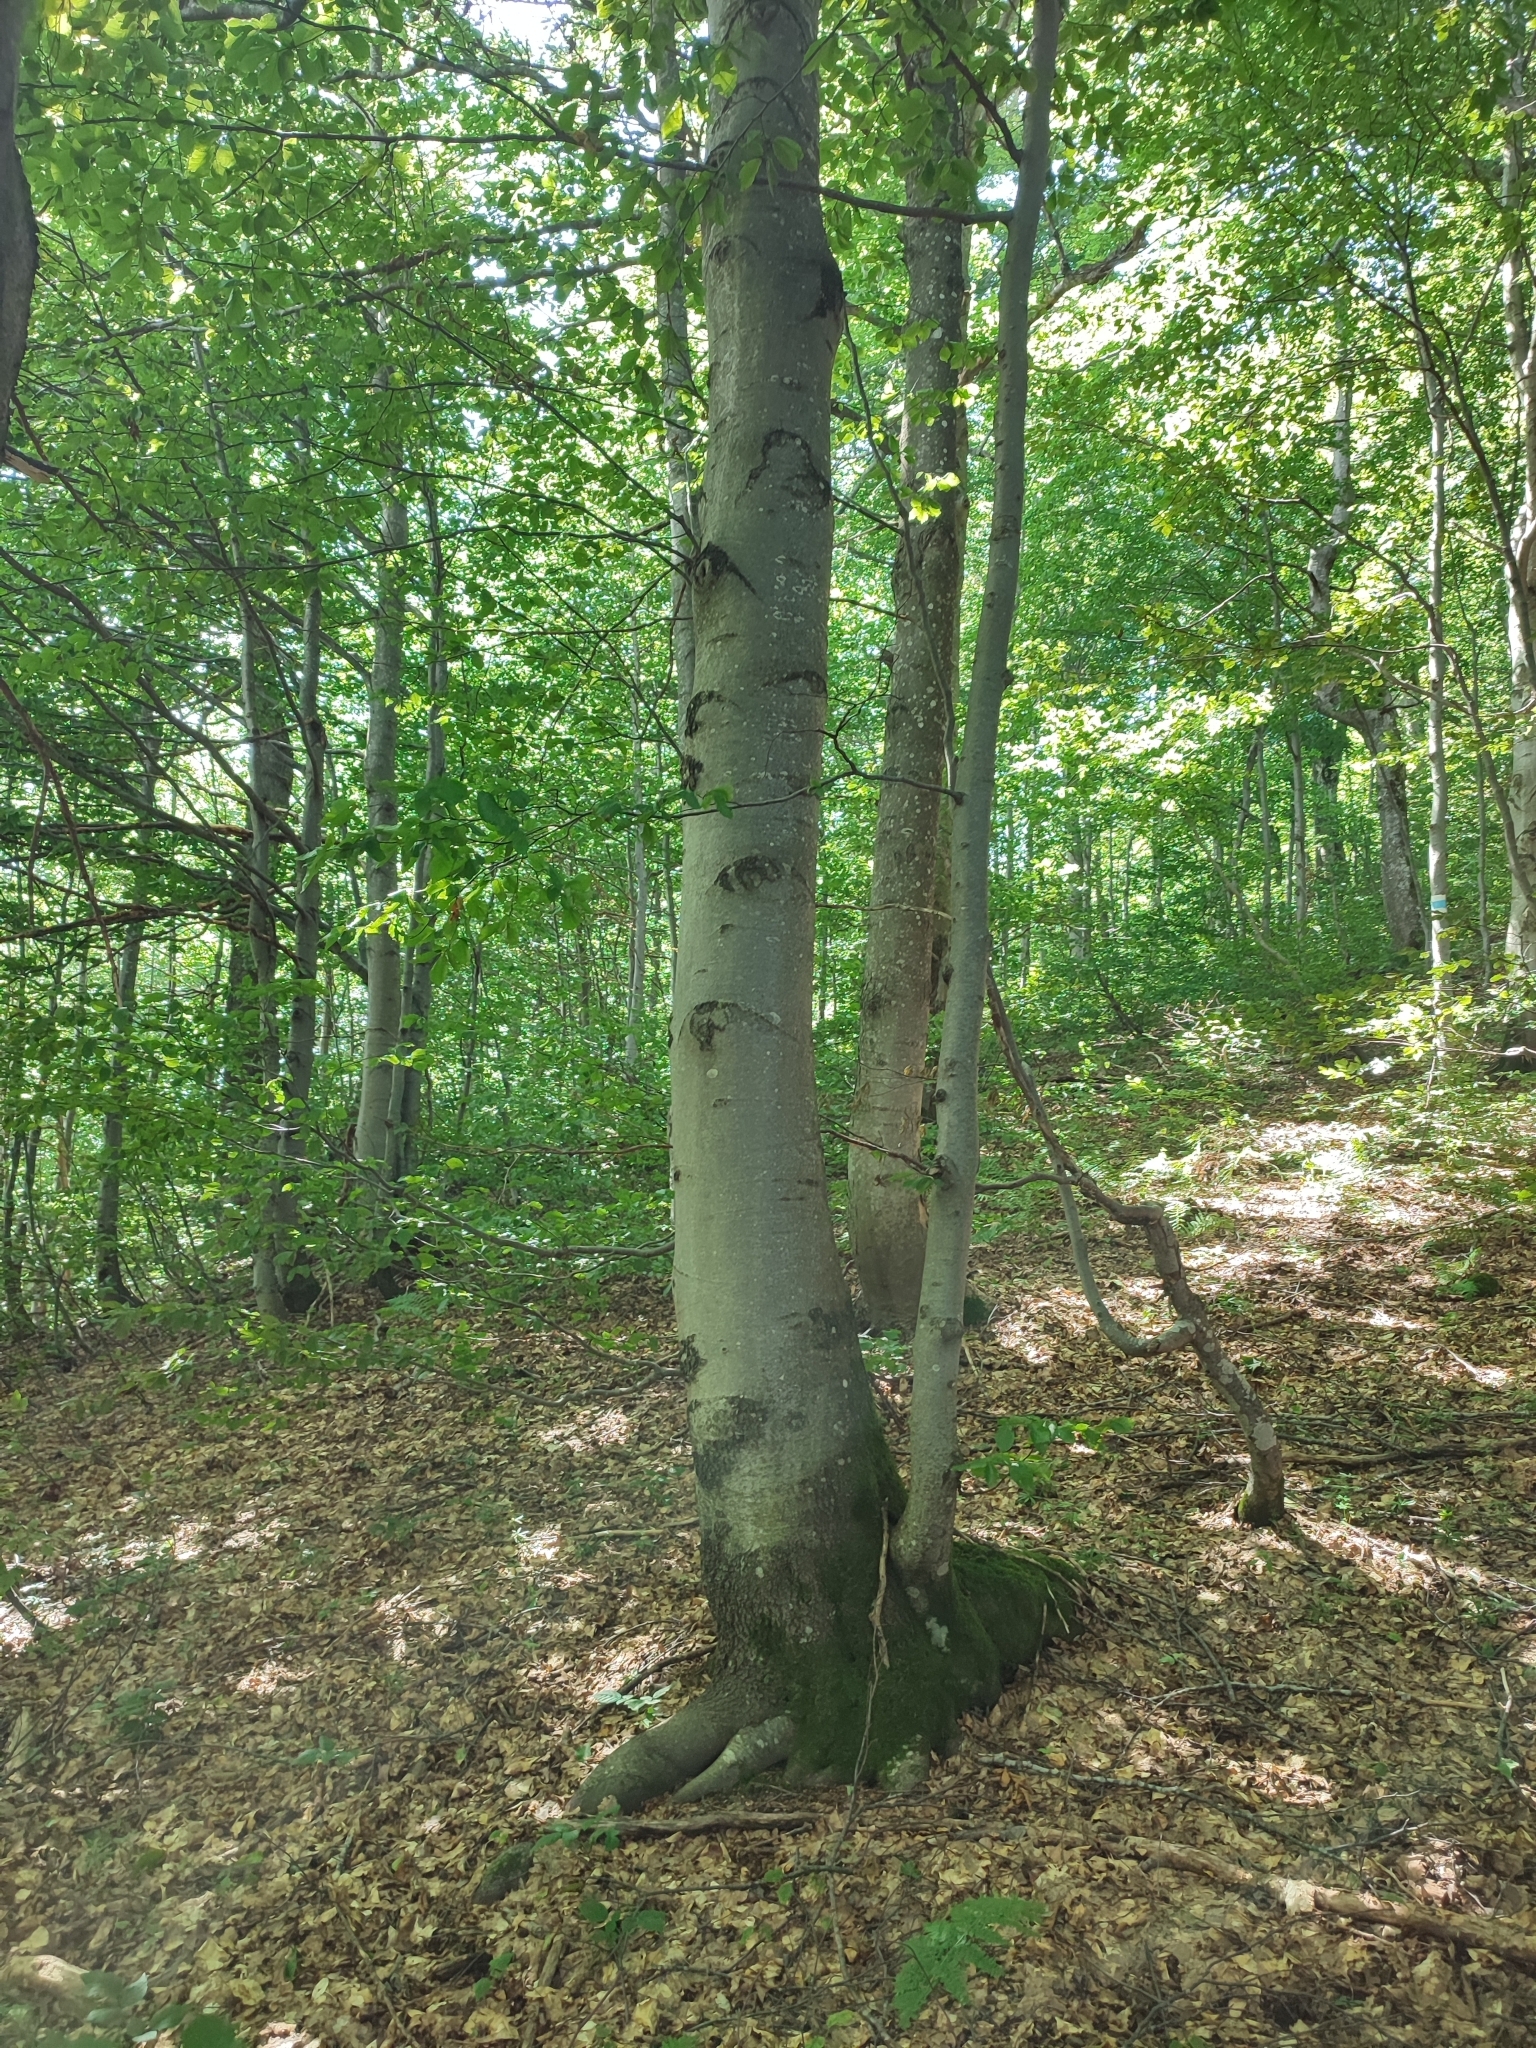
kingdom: Plantae
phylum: Tracheophyta
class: Magnoliopsida
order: Fagales
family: Fagaceae
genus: Fagus
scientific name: Fagus sylvatica
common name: Beech
